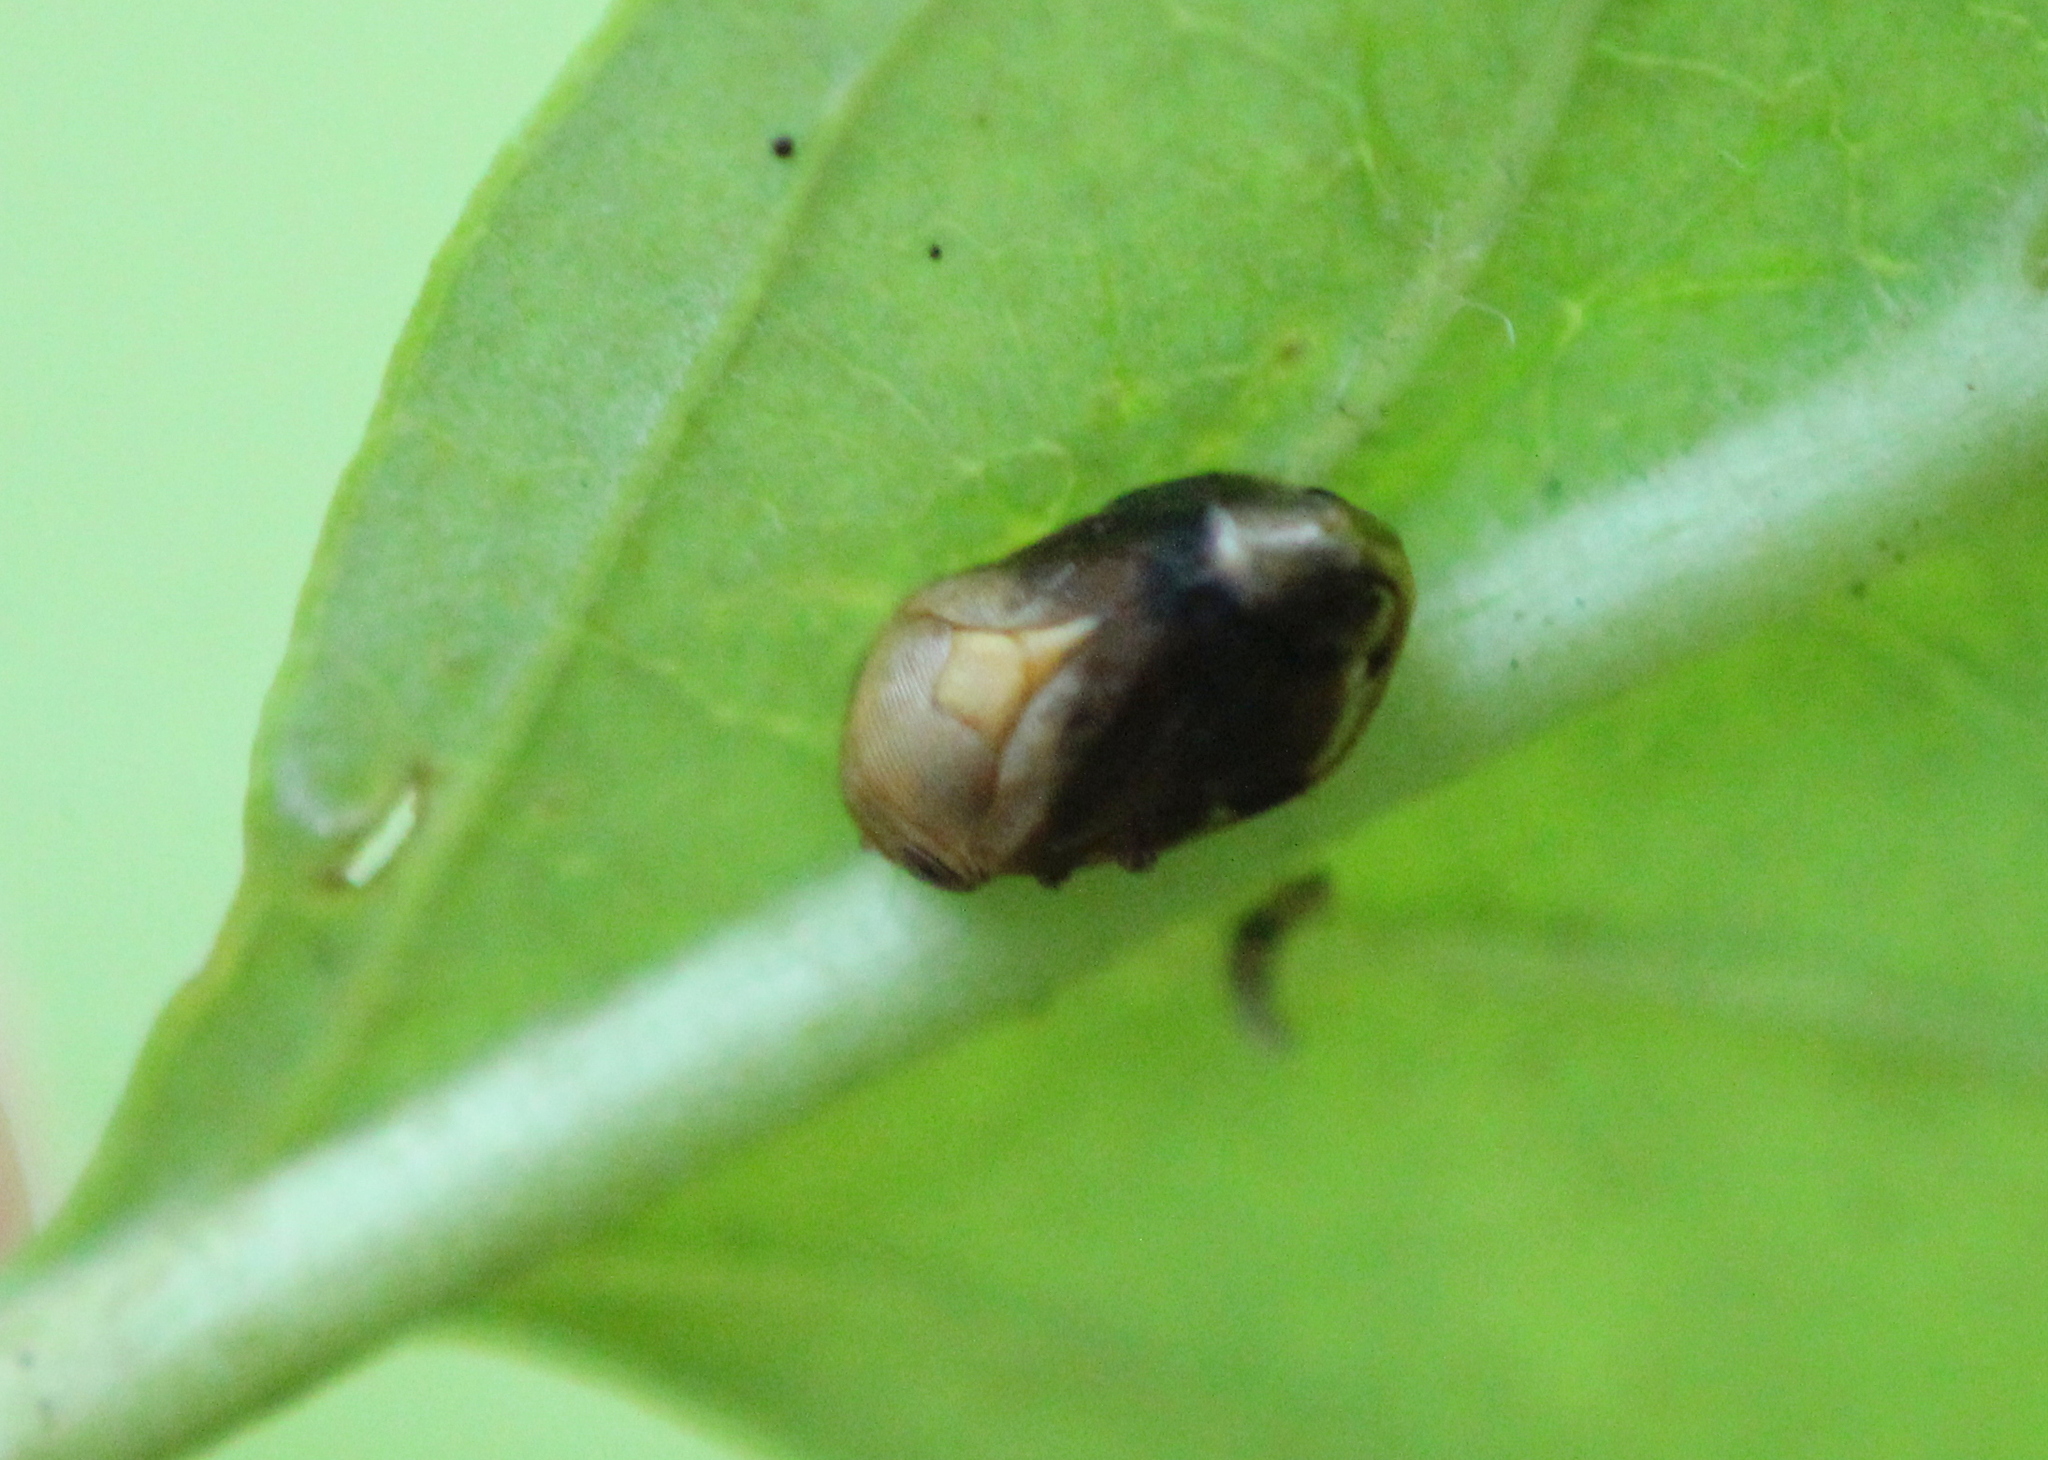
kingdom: Animalia
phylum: Arthropoda
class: Insecta
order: Hemiptera
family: Clastopteridae
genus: Clastoptera
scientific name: Clastoptera achatina
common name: Pecan spittlebug
